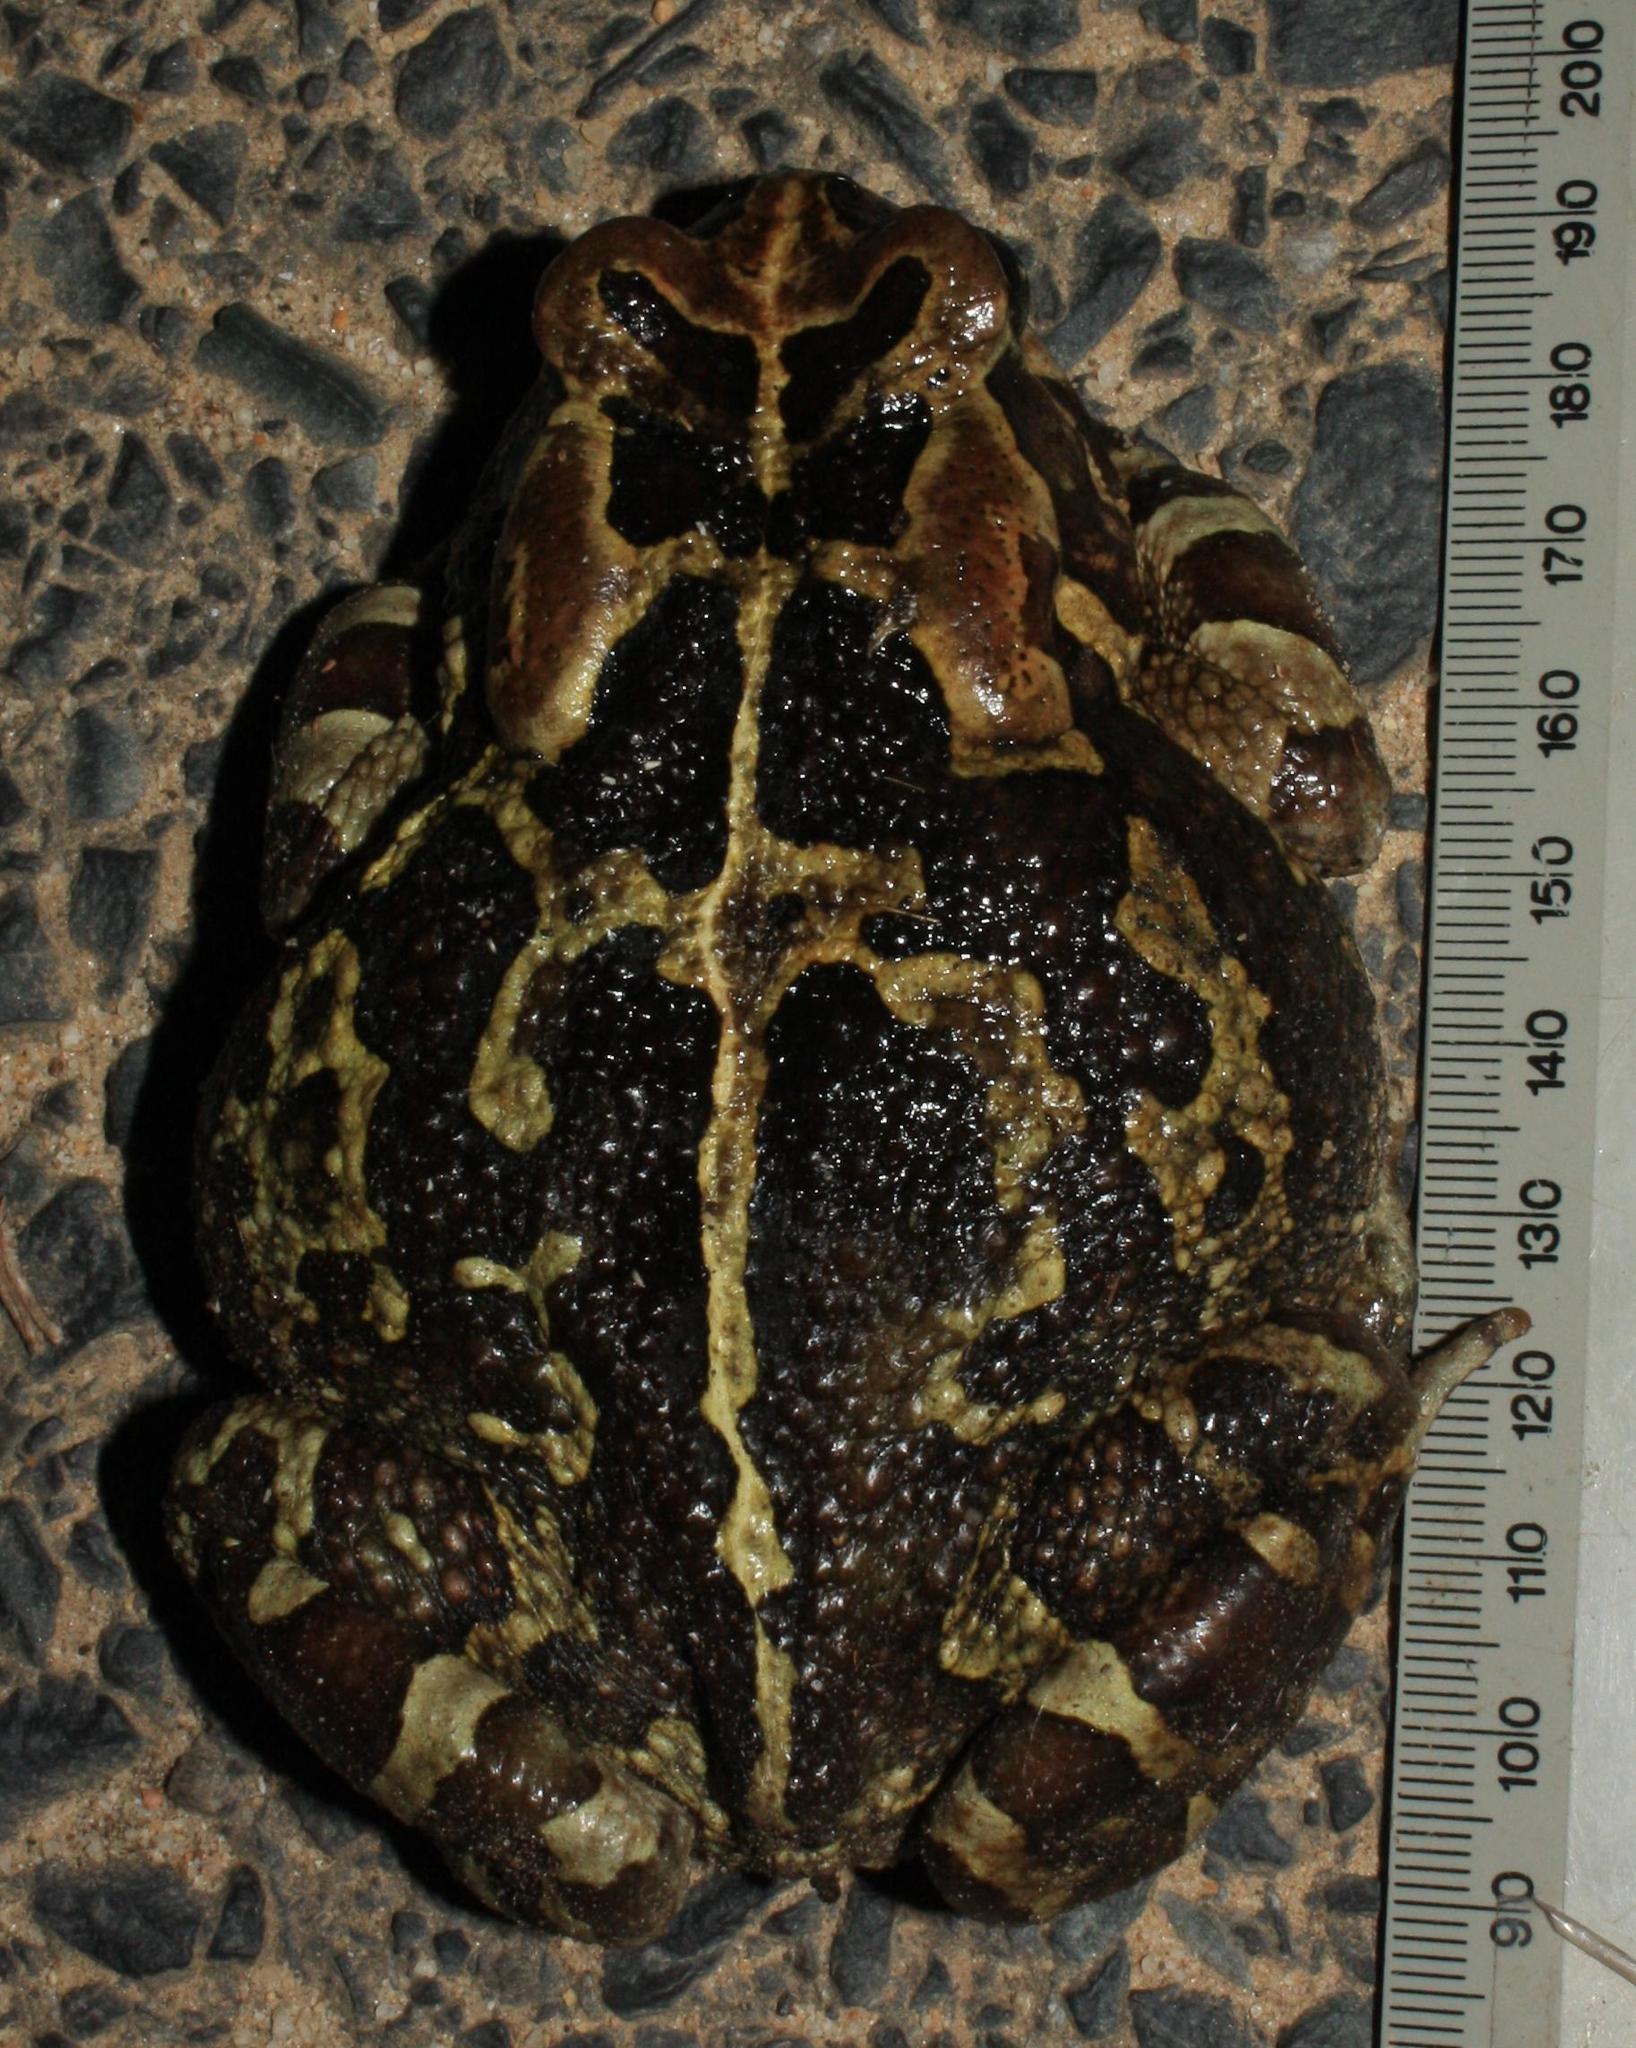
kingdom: Animalia
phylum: Chordata
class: Amphibia
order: Anura
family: Bufonidae
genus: Sclerophrys
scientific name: Sclerophrys pantherina
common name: Panther toad
